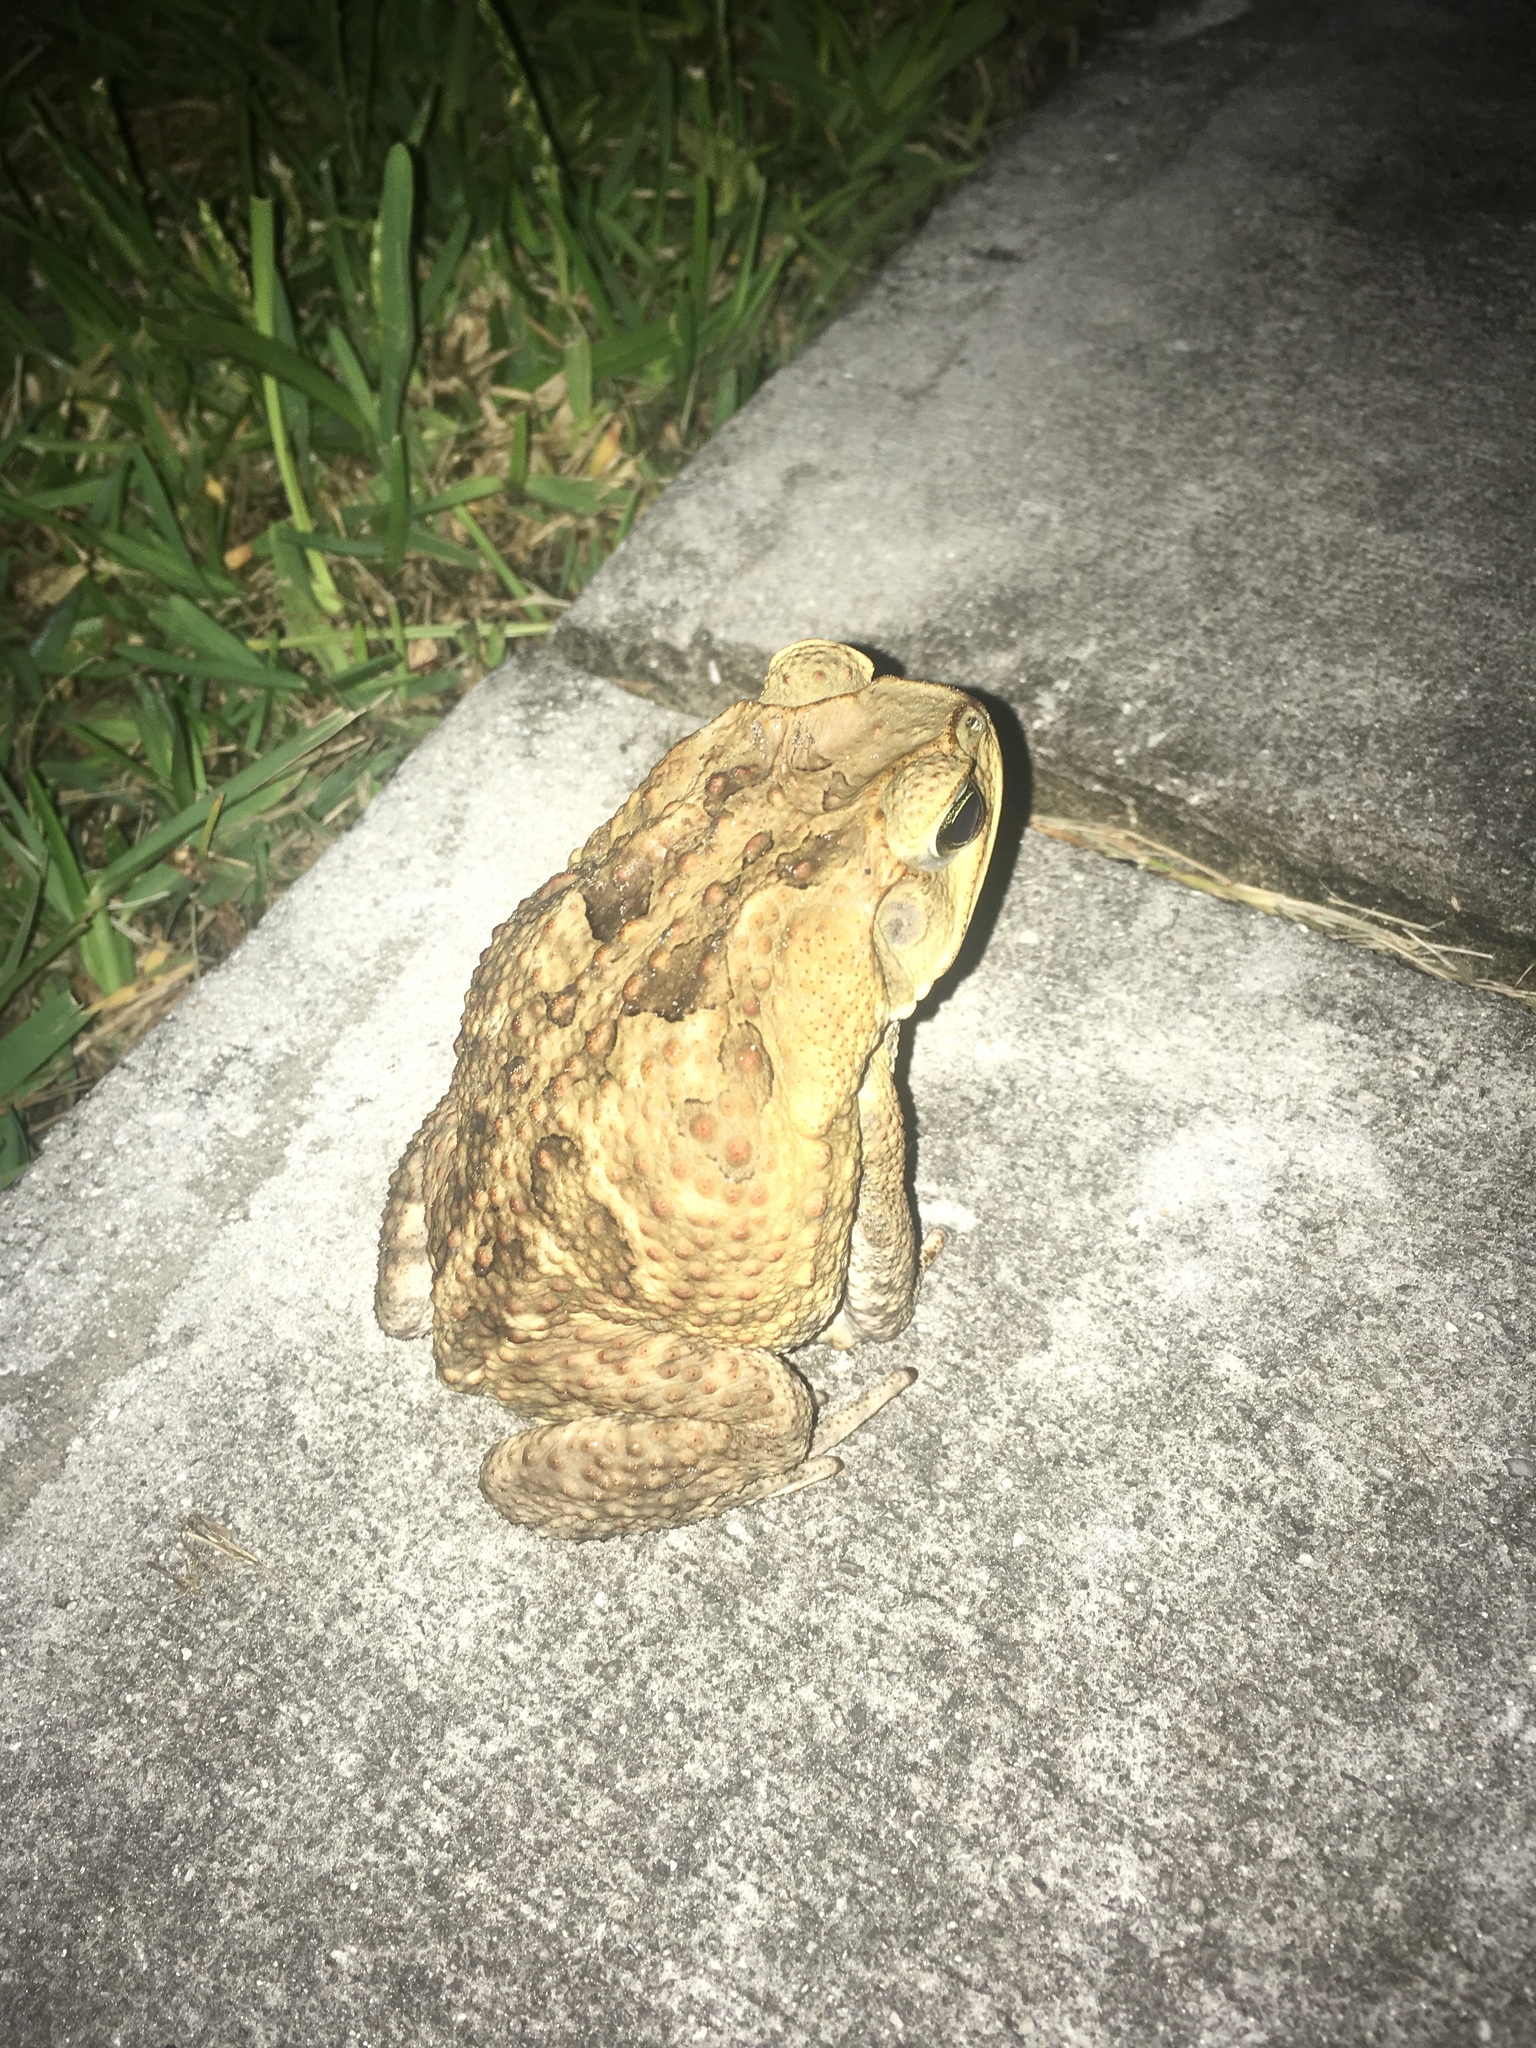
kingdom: Animalia
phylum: Chordata
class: Amphibia
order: Anura
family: Bufonidae
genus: Rhinella
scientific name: Rhinella marina
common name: Cane toad
